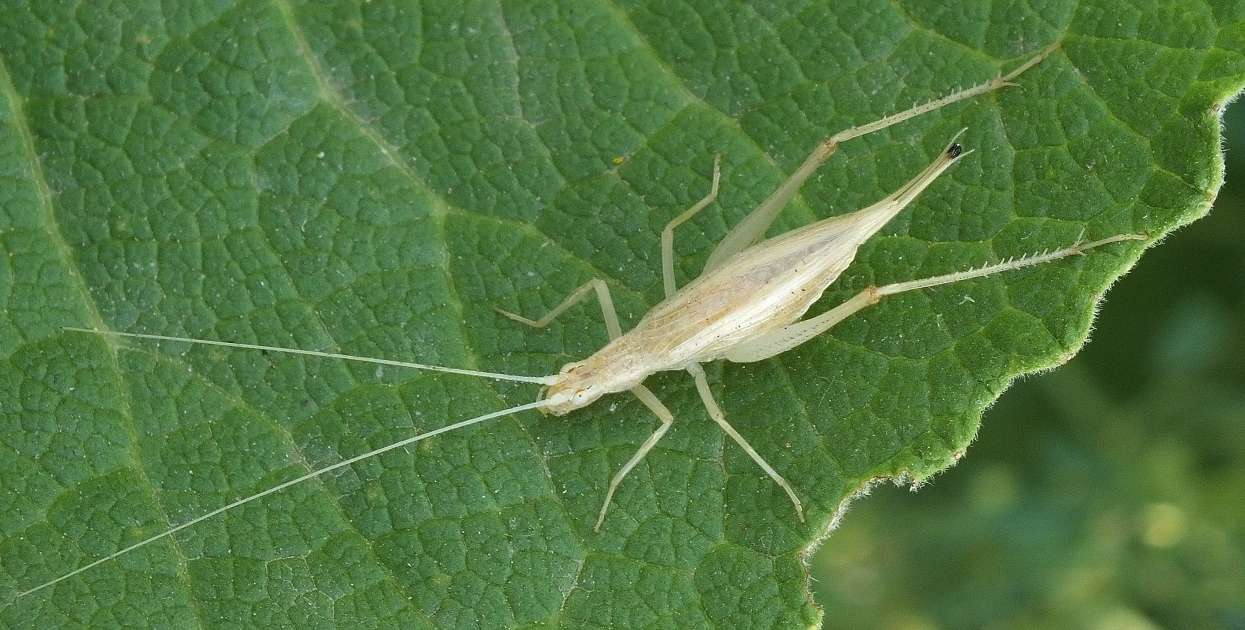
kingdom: Animalia
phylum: Arthropoda
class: Insecta
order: Orthoptera
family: Gryllidae
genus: Oecanthus
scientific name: Oecanthus pellucens
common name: Tree-cricket
